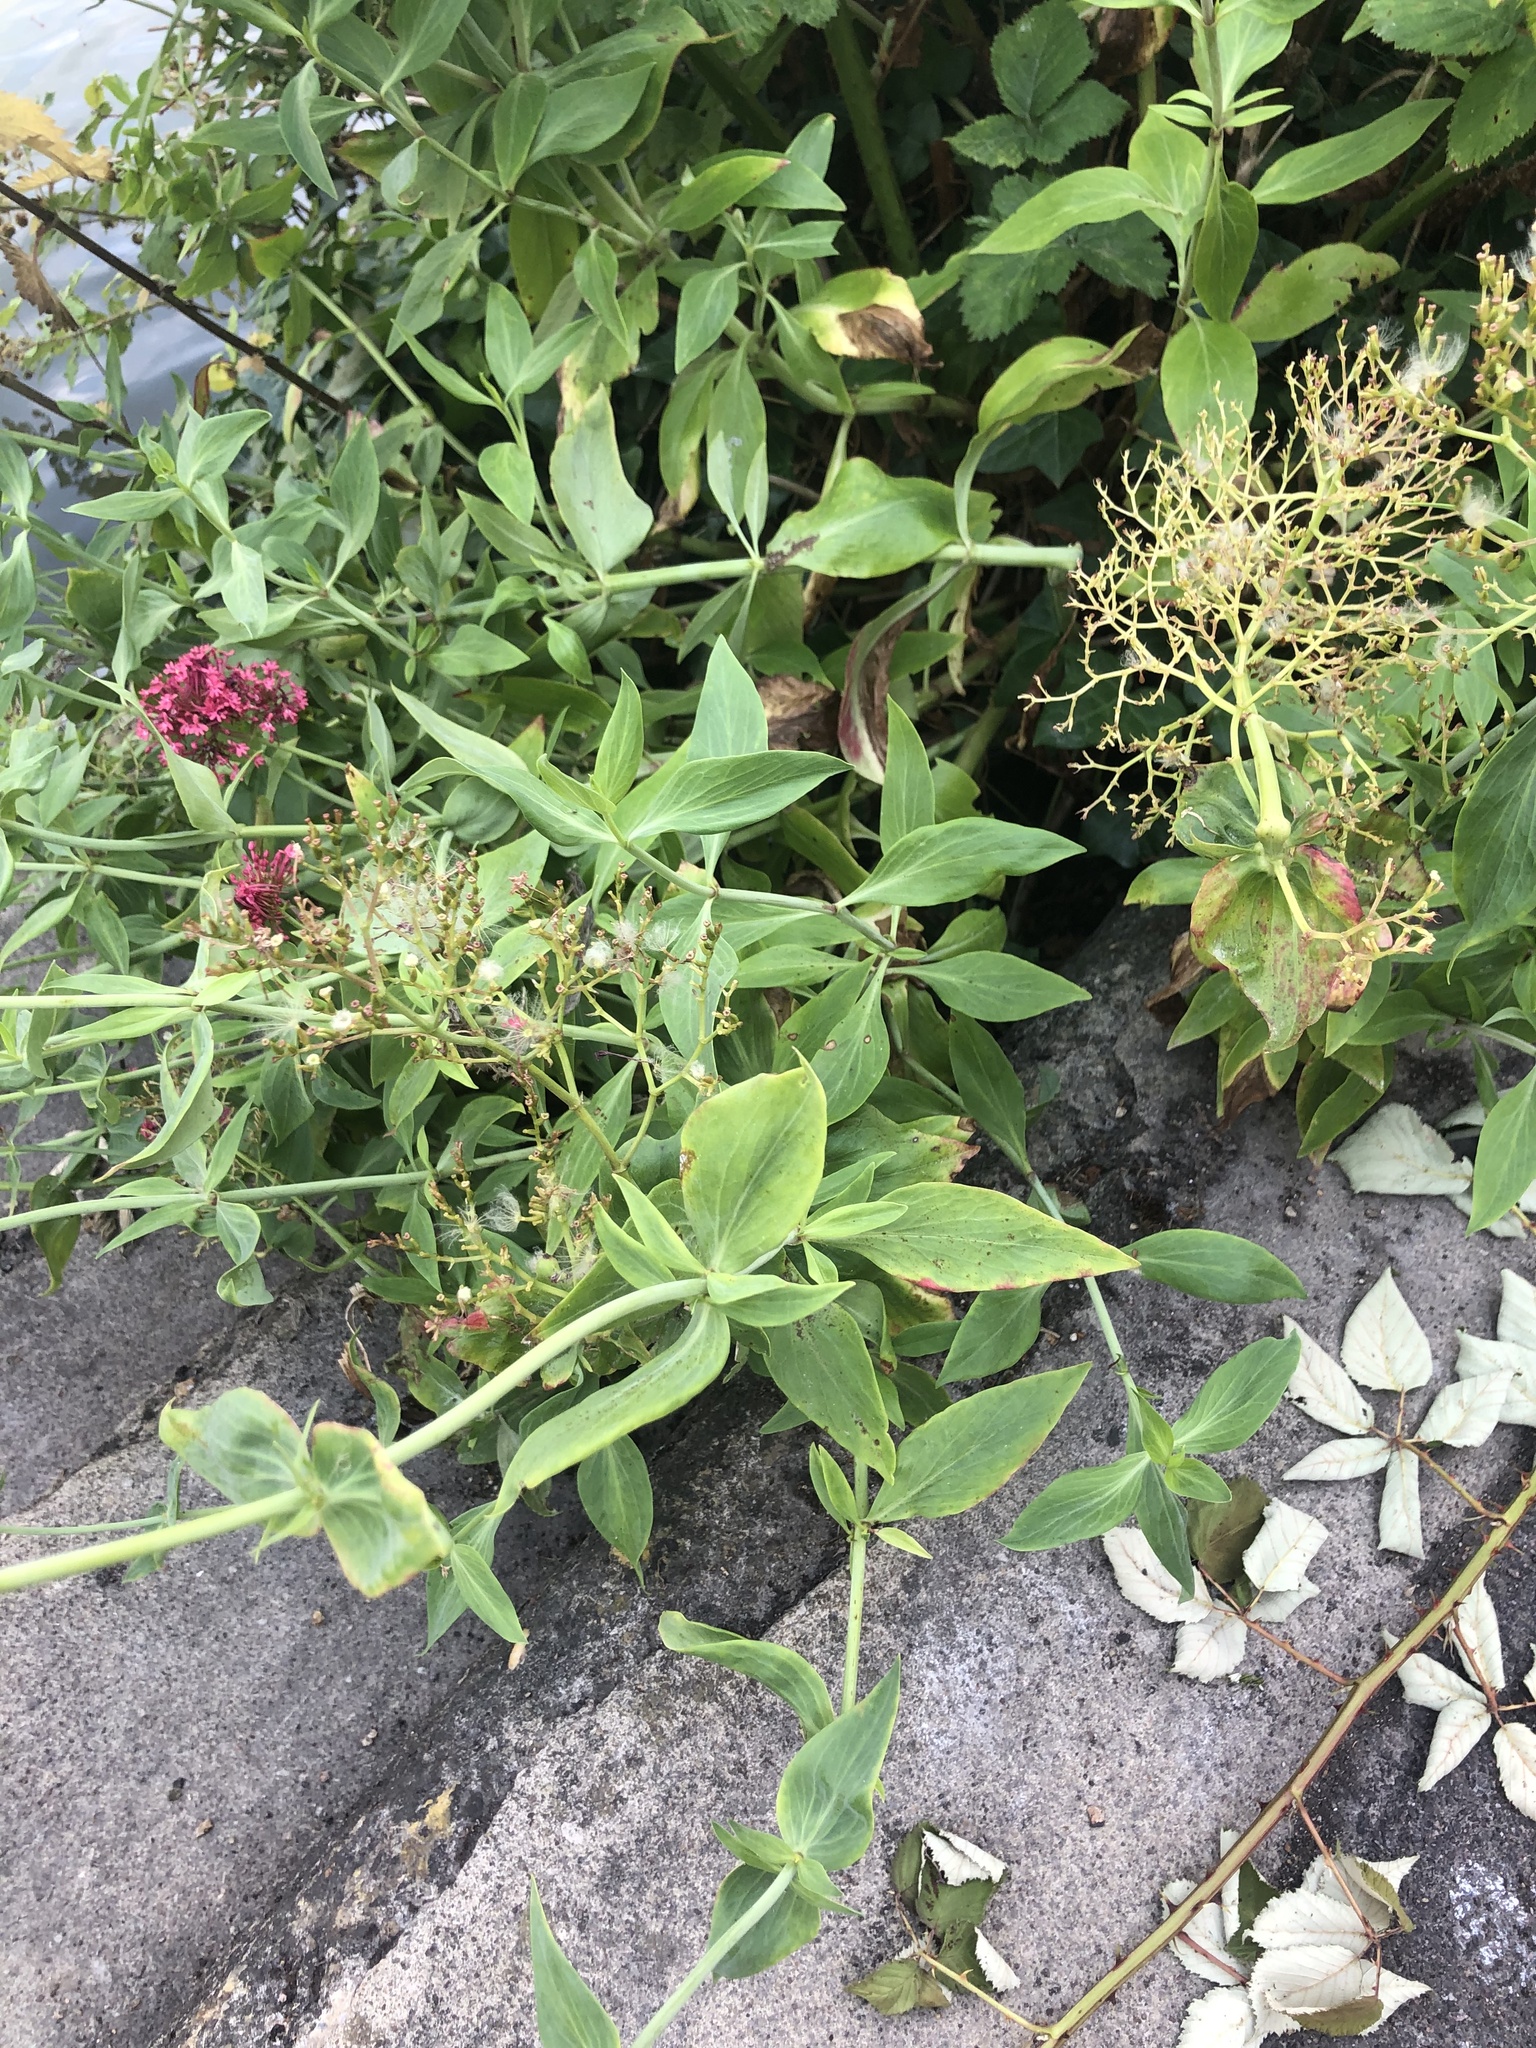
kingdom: Plantae
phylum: Tracheophyta
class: Magnoliopsida
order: Dipsacales
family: Caprifoliaceae
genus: Centranthus
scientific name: Centranthus ruber
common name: Red valerian
